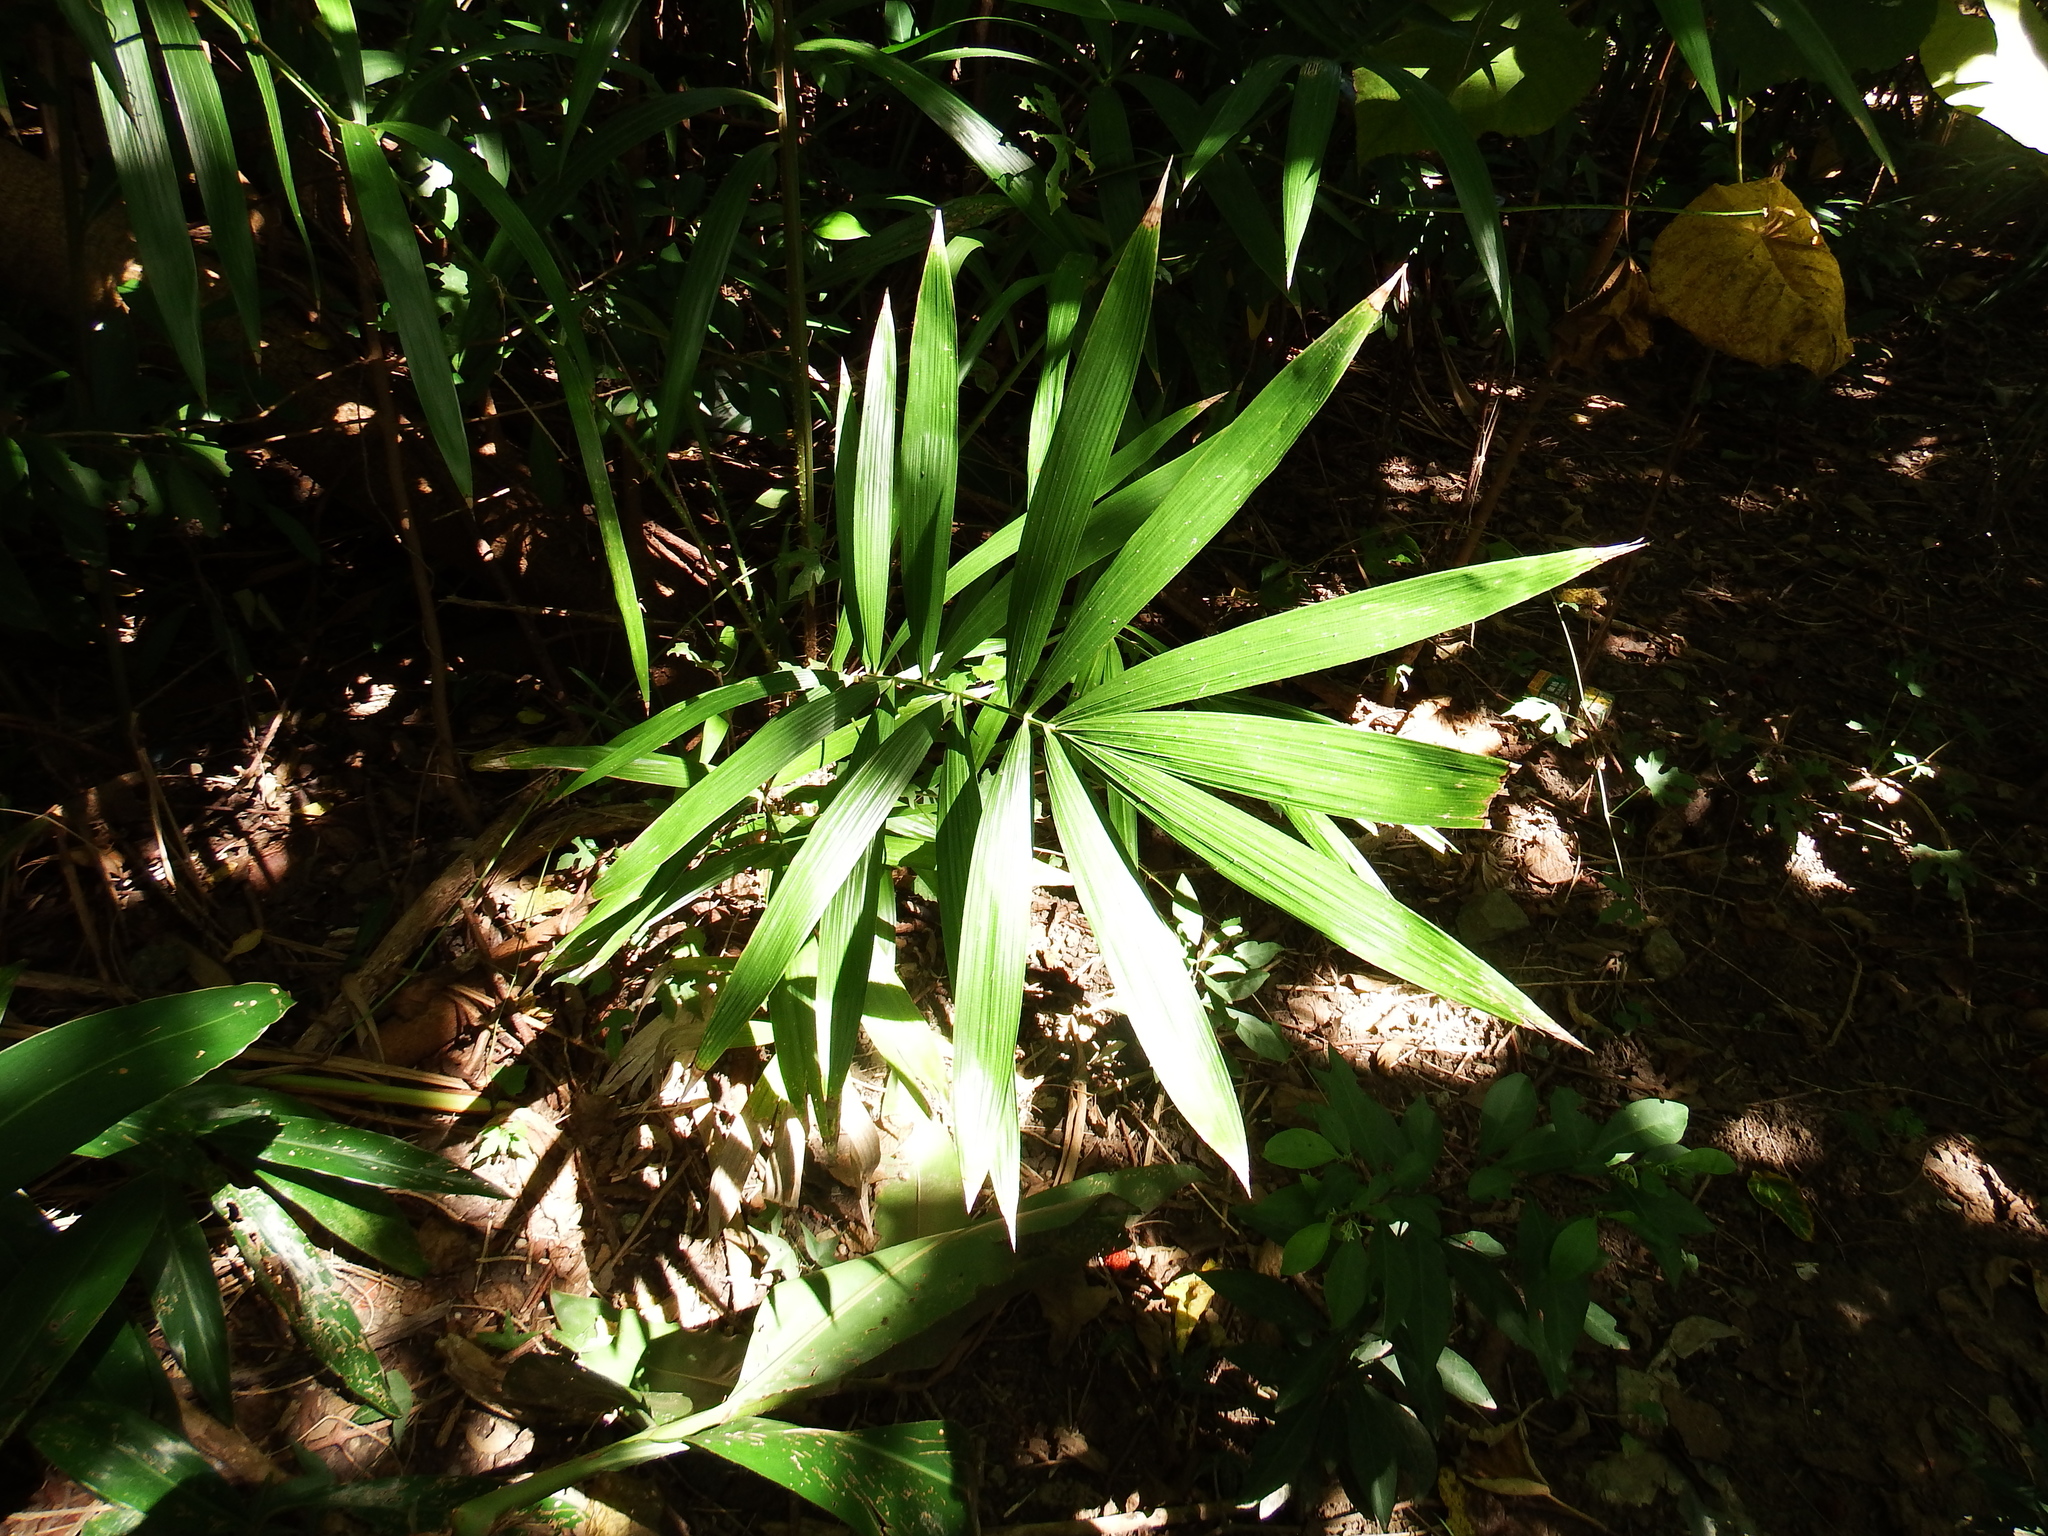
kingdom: Plantae
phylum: Tracheophyta
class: Liliopsida
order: Arecales
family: Arecaceae
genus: Calamus
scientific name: Calamus formosanus
